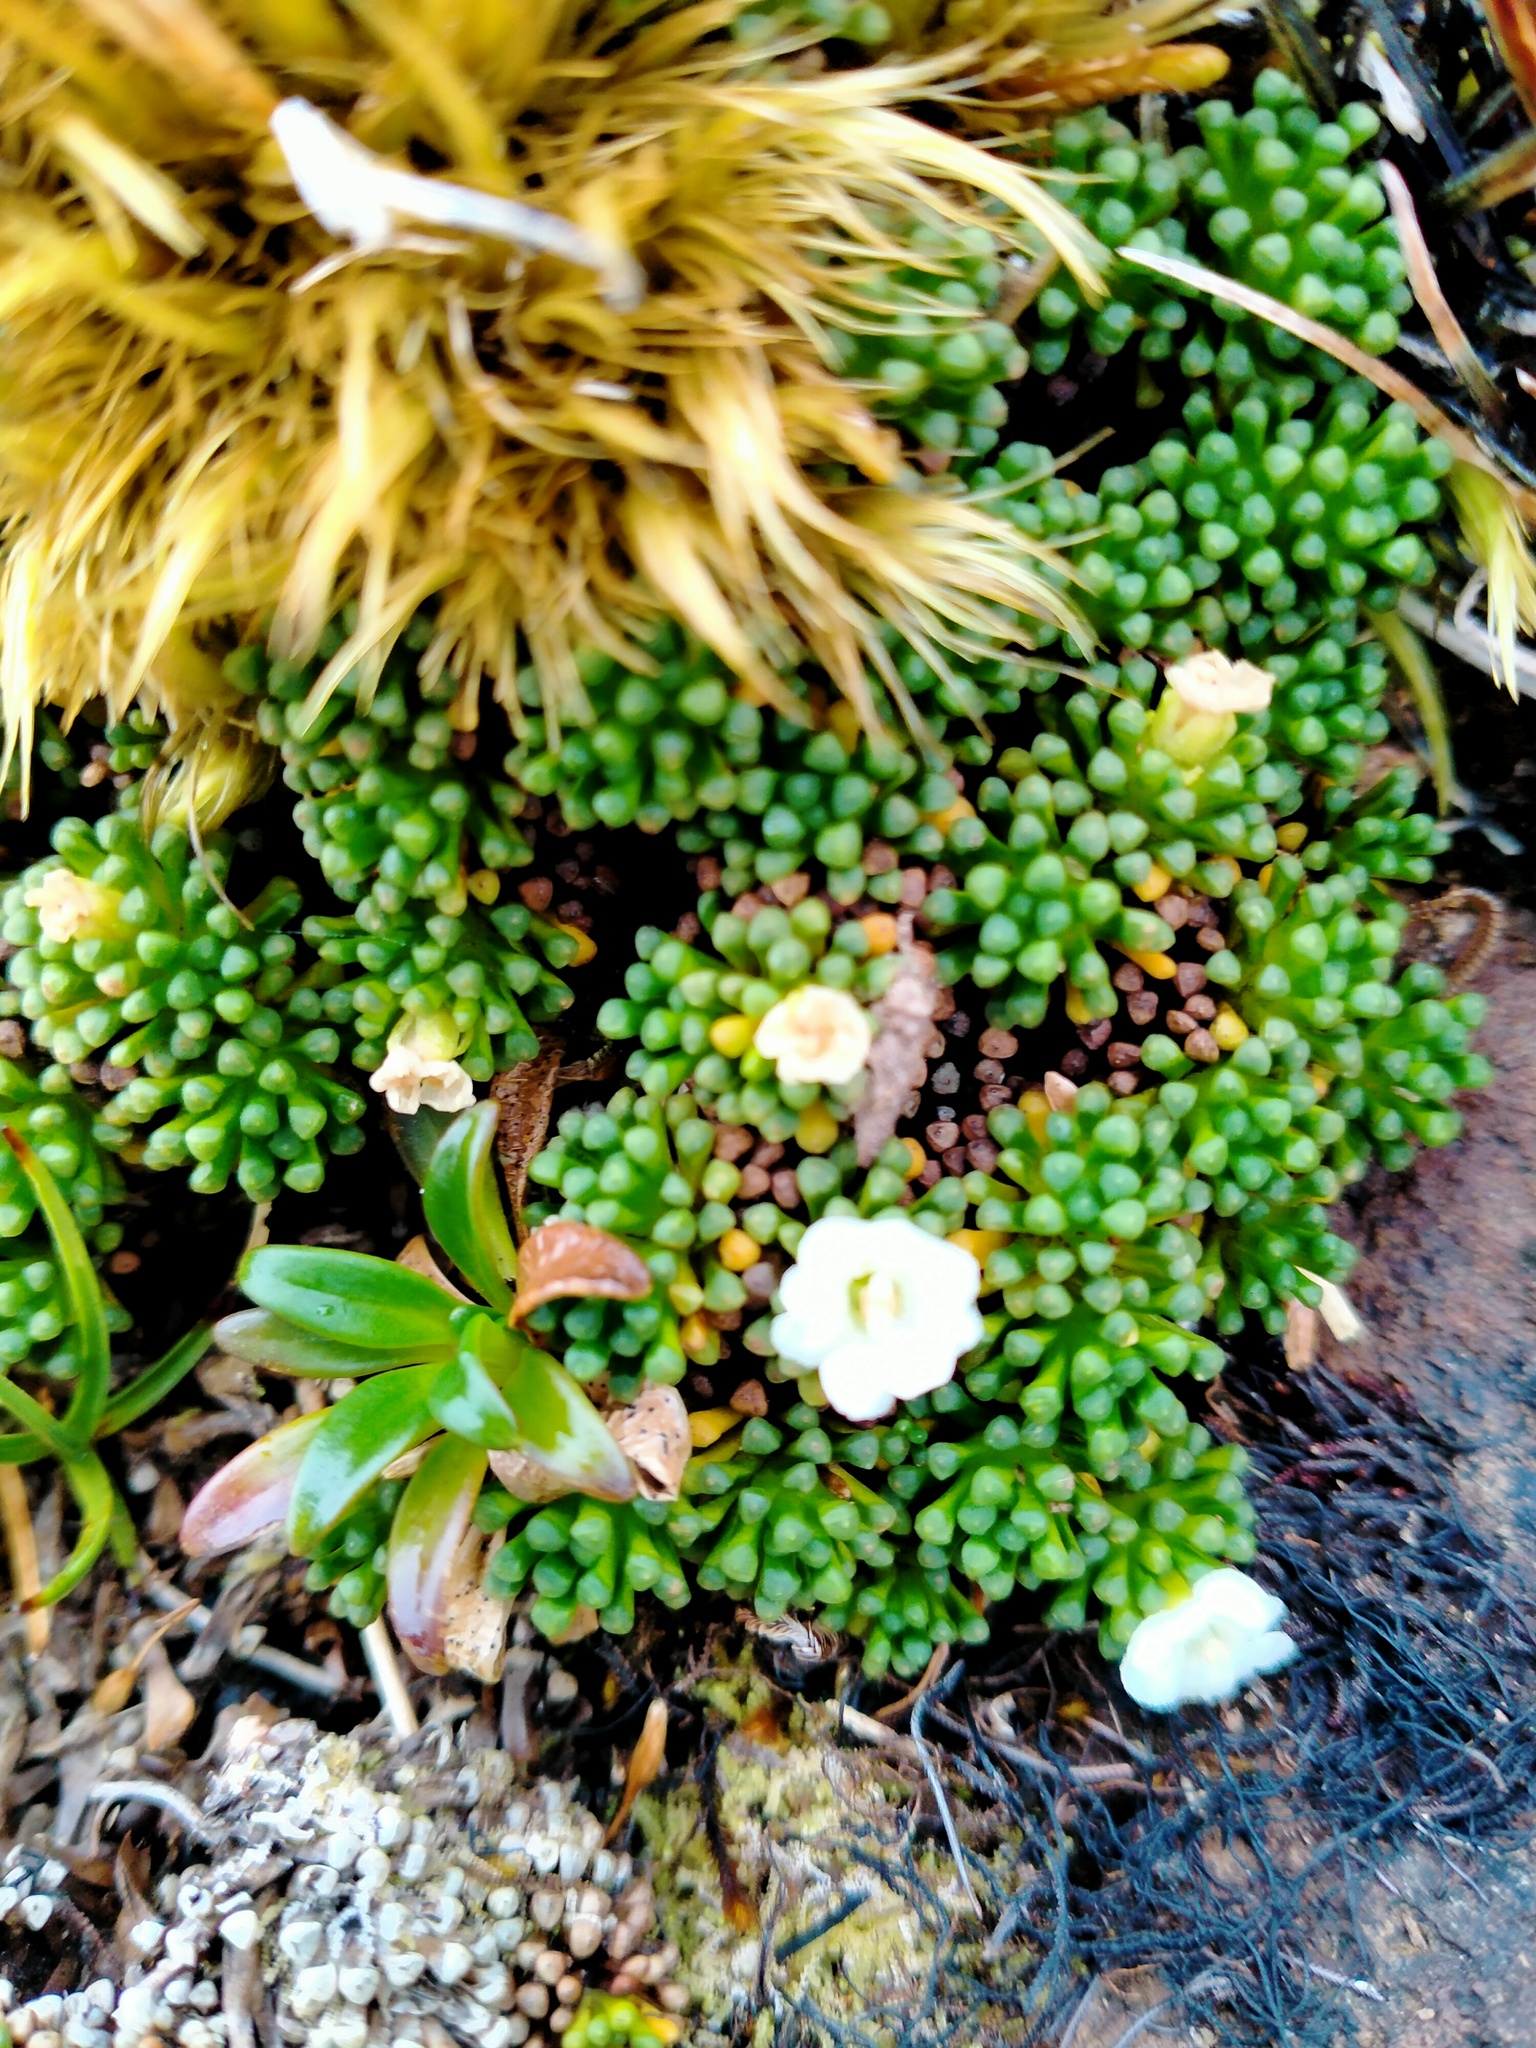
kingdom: Plantae
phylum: Tracheophyta
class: Magnoliopsida
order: Asterales
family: Stylidiaceae
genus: Phyllachne
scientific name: Phyllachne colensoi
